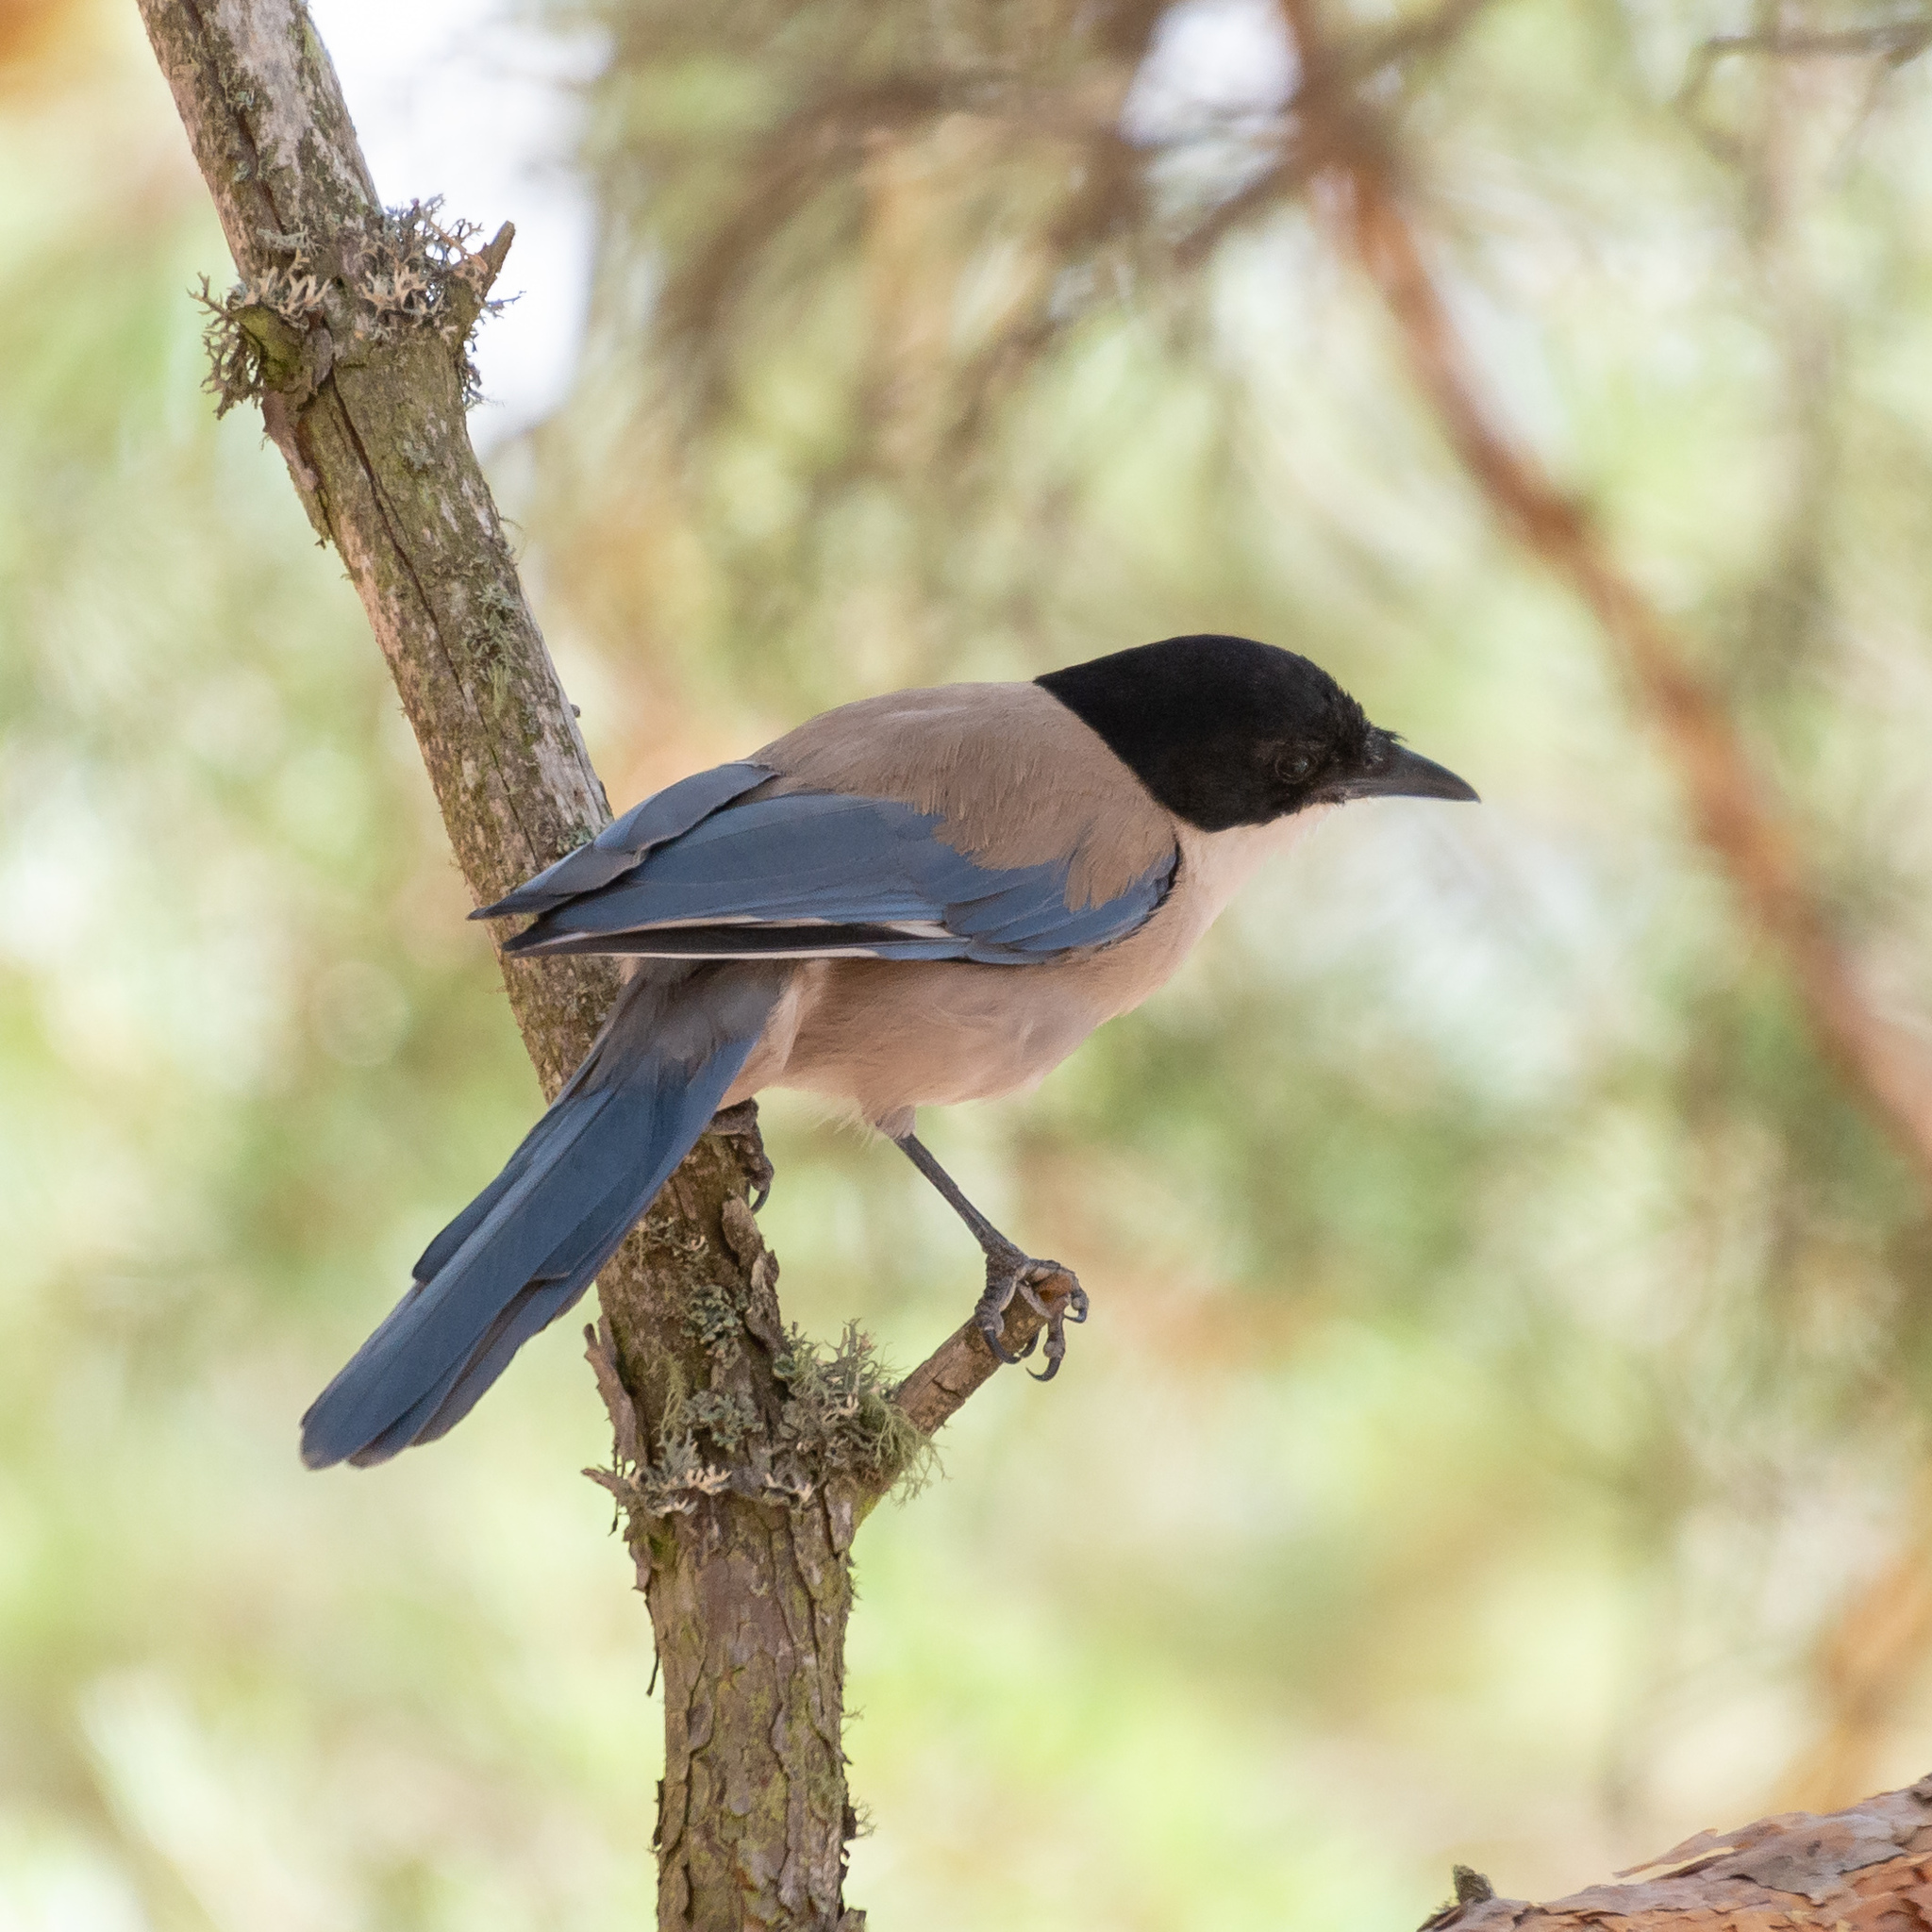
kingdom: Animalia
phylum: Chordata
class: Aves
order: Passeriformes
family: Corvidae
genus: Cyanopica
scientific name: Cyanopica cooki
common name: Iberian magpie
